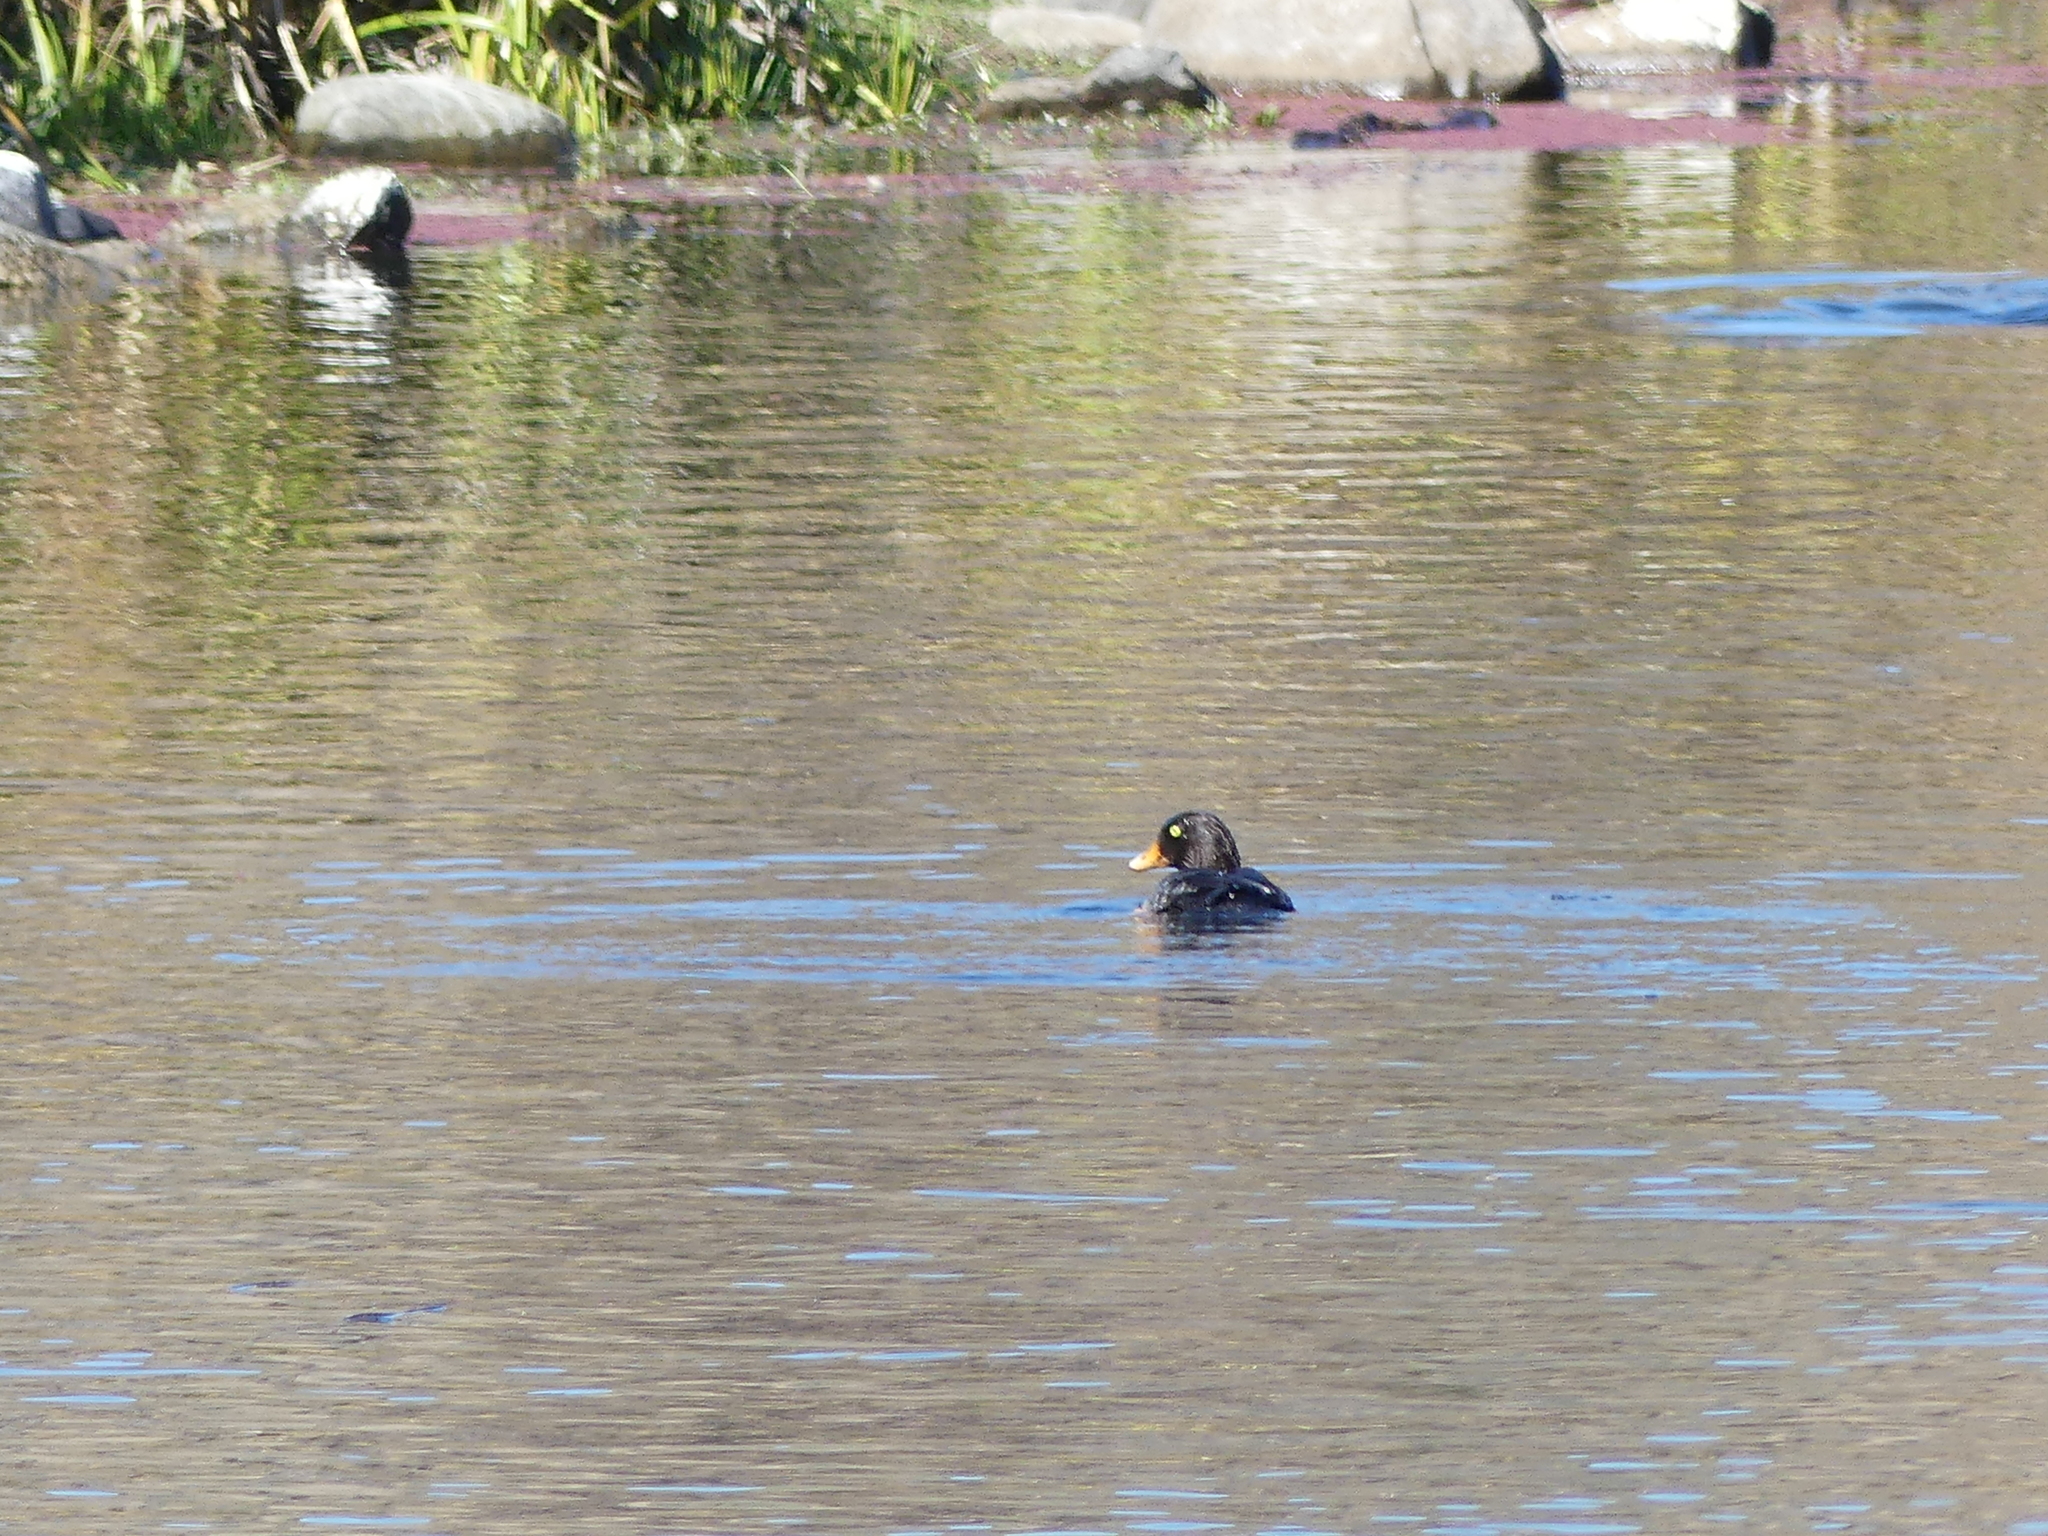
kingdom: Animalia
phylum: Chordata
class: Aves
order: Anseriformes
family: Anatidae
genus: Bucephala
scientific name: Bucephala islandica
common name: Barrow's goldeneye
